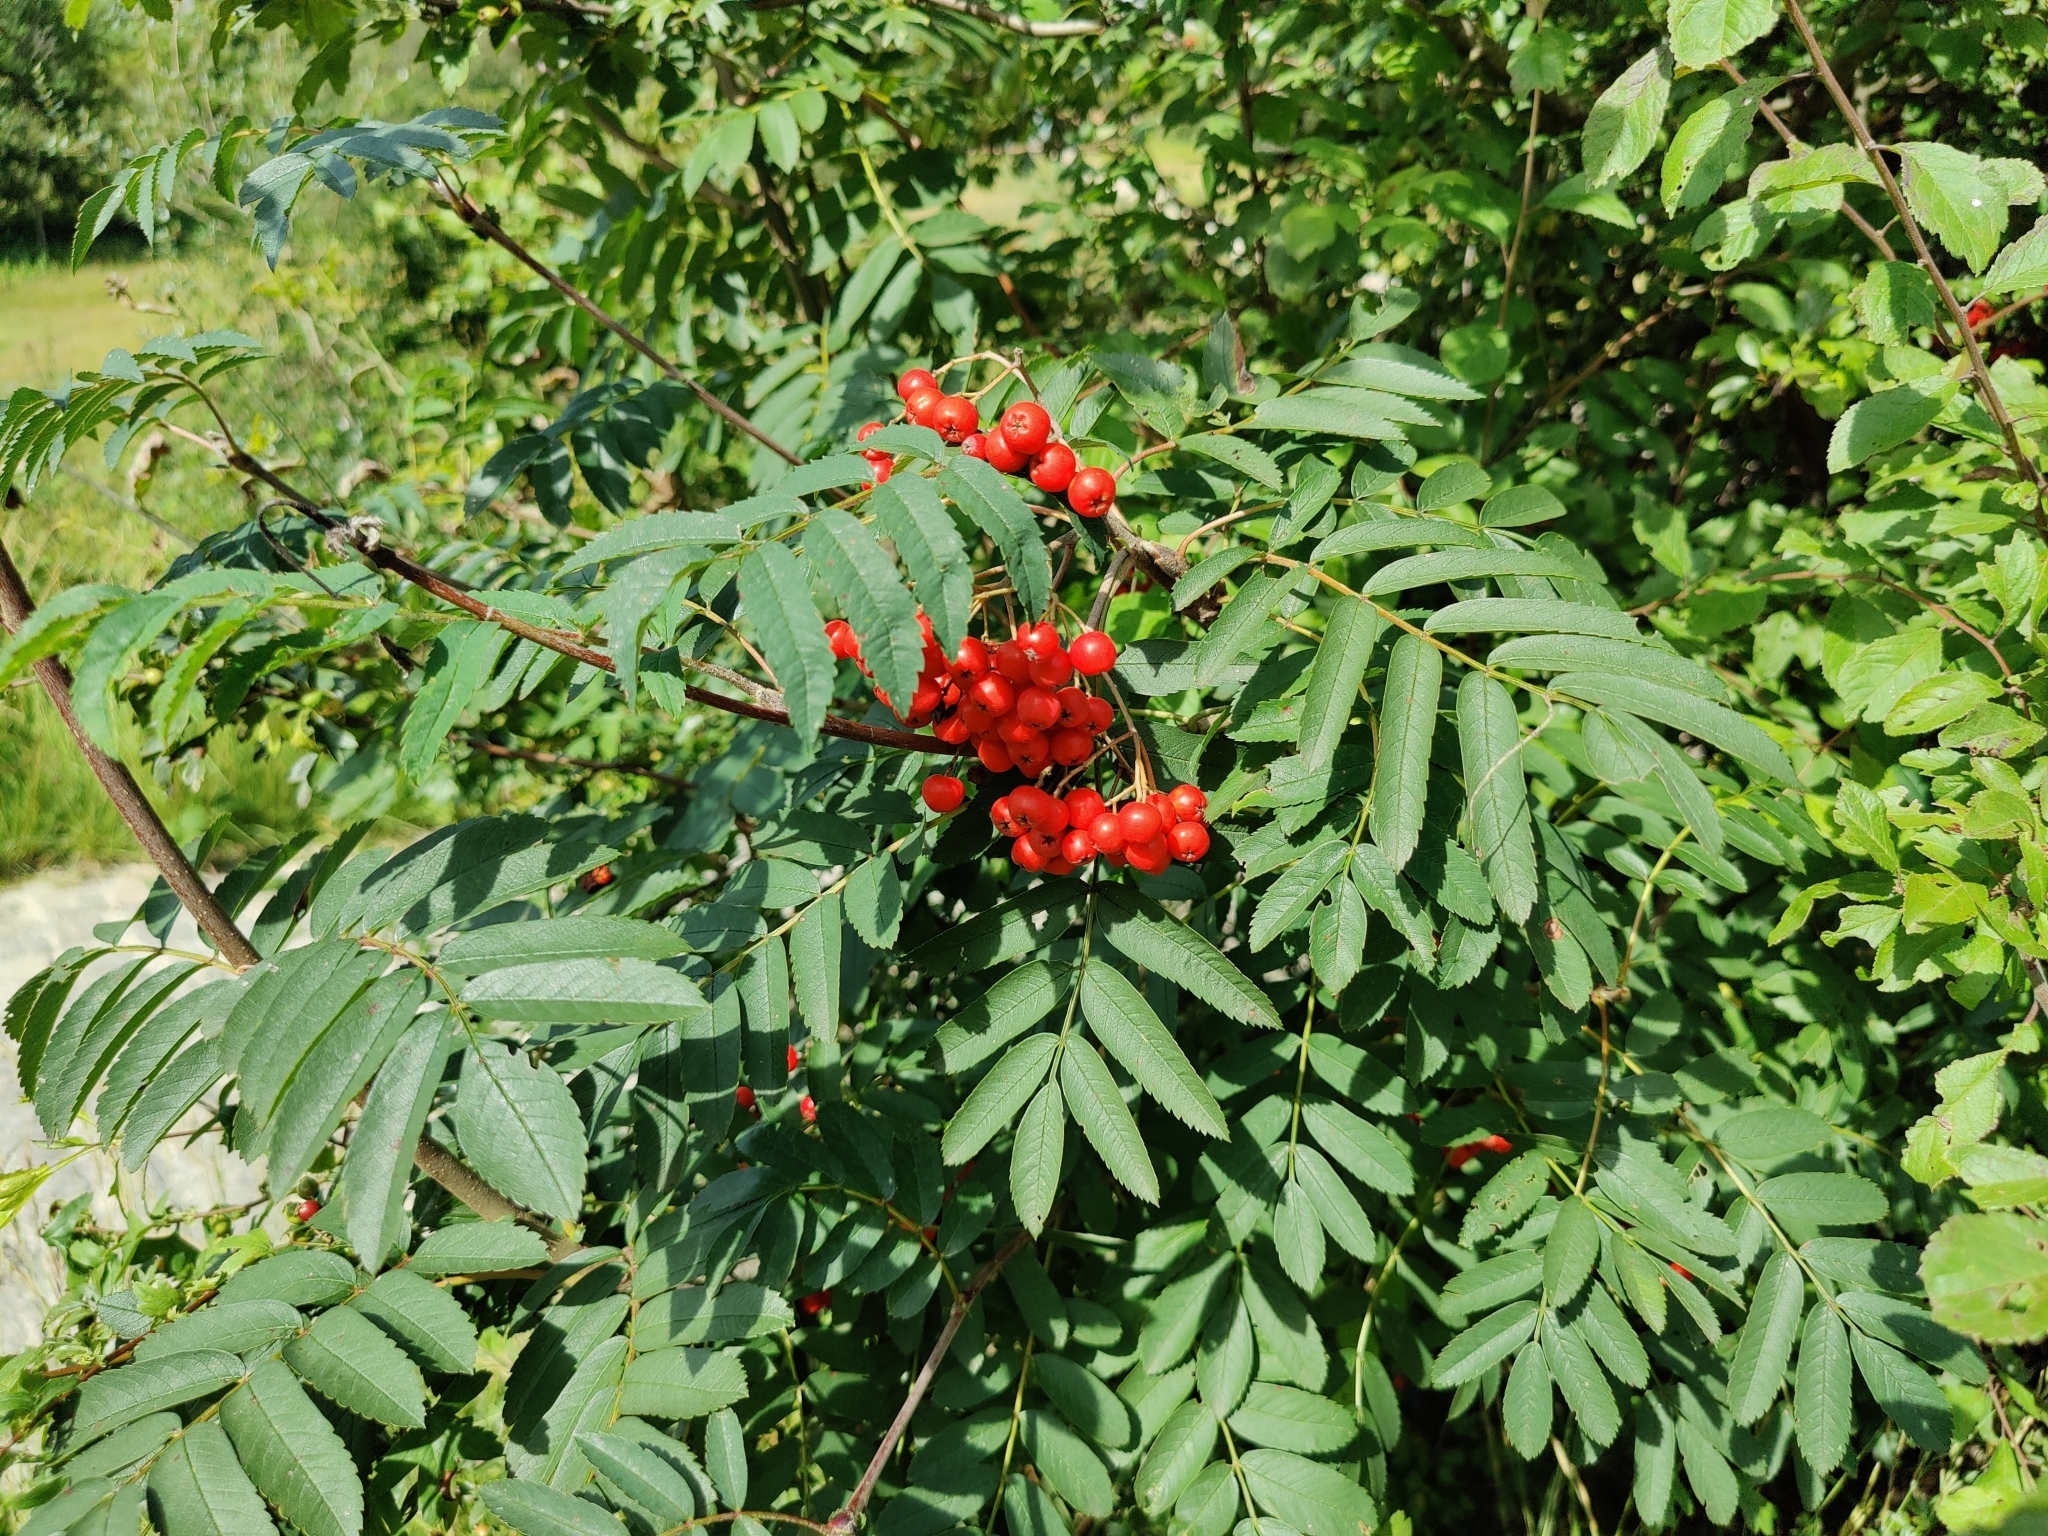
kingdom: Plantae
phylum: Tracheophyta
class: Magnoliopsida
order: Rosales
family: Rosaceae
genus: Sorbus
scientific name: Sorbus aucuparia
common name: Rowan
